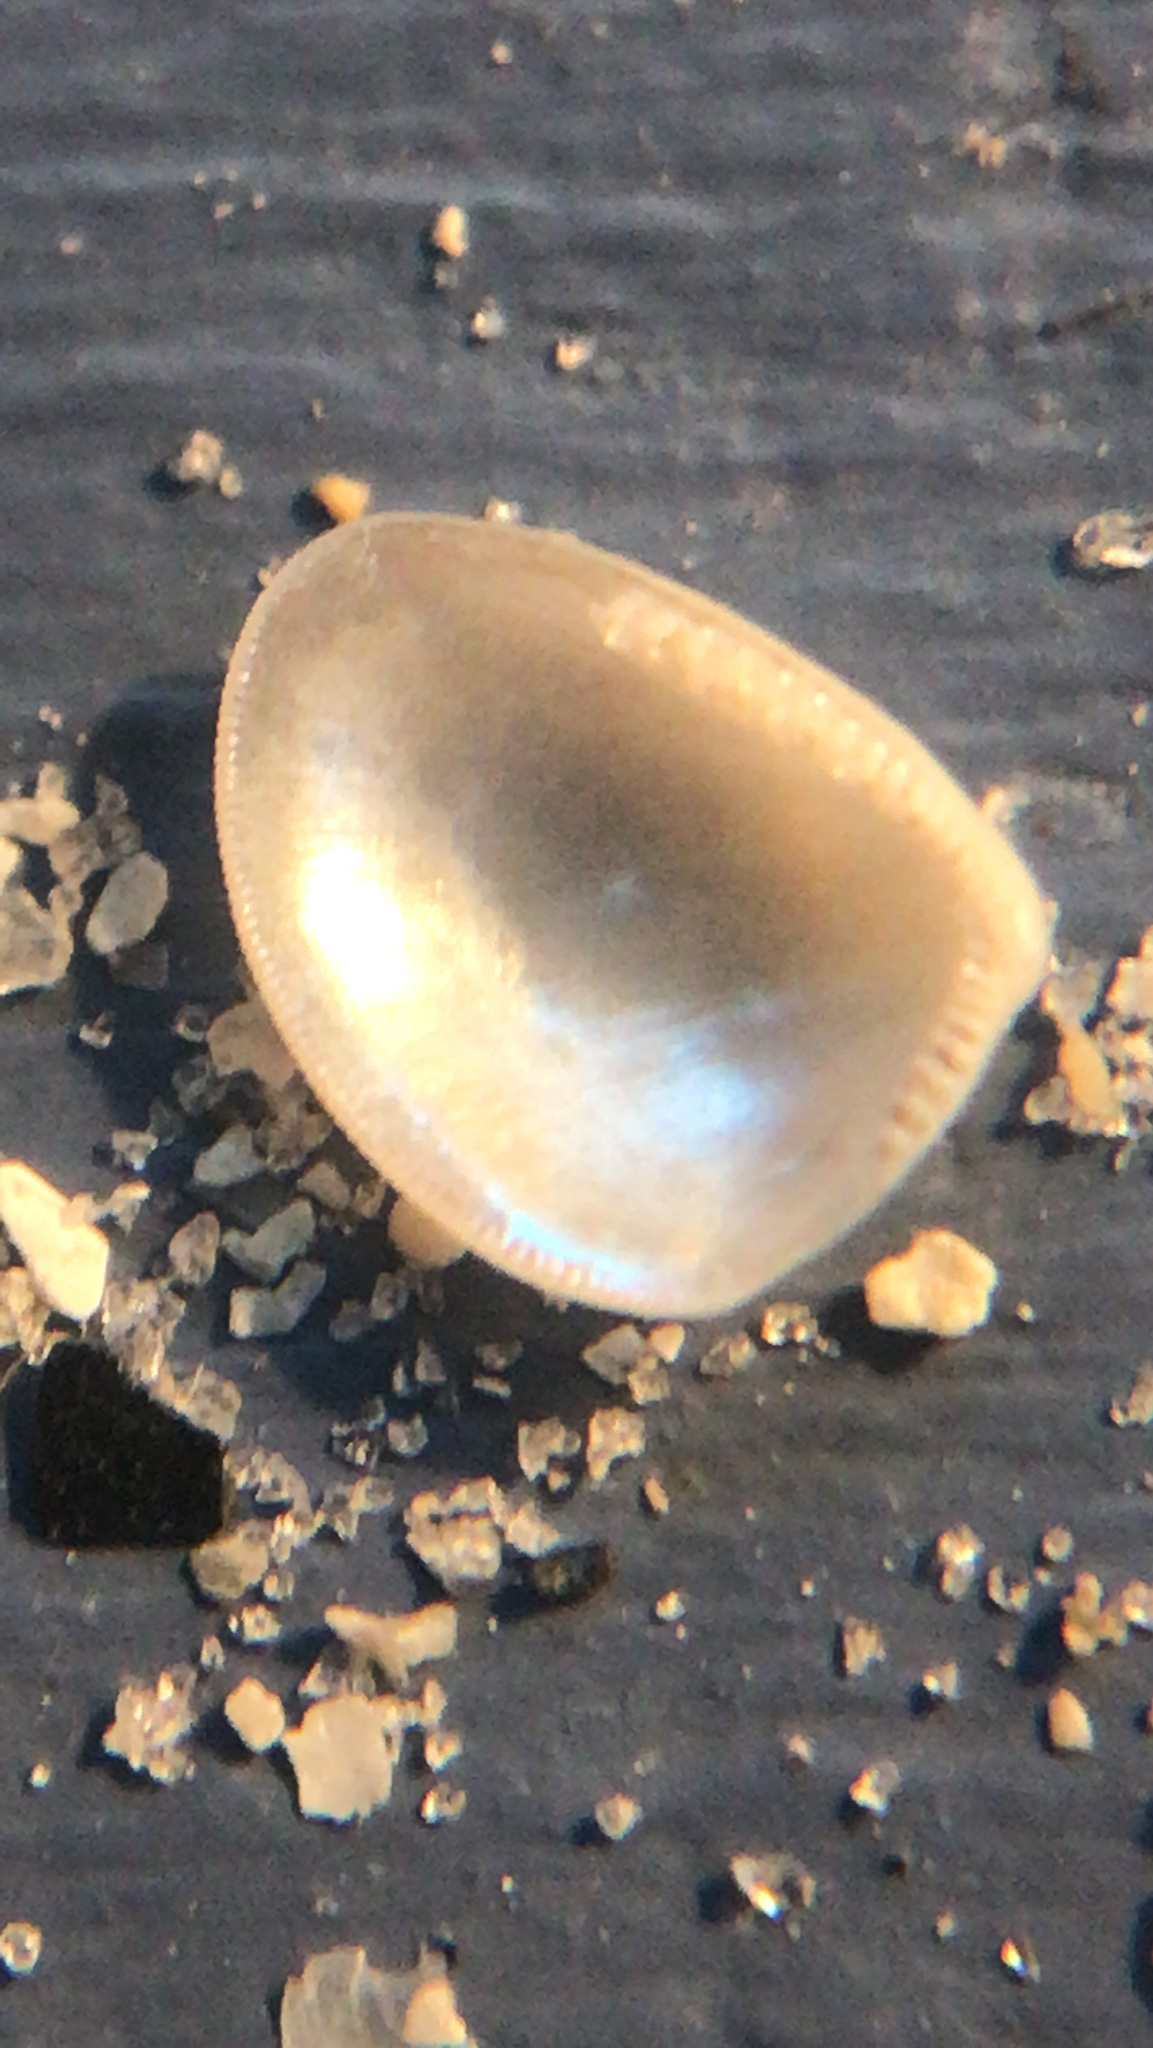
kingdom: Animalia
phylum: Mollusca
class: Bivalvia
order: Nuculida
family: Nuculidae
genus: Nucula
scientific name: Nucula proxima
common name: Atlantic nut clam
